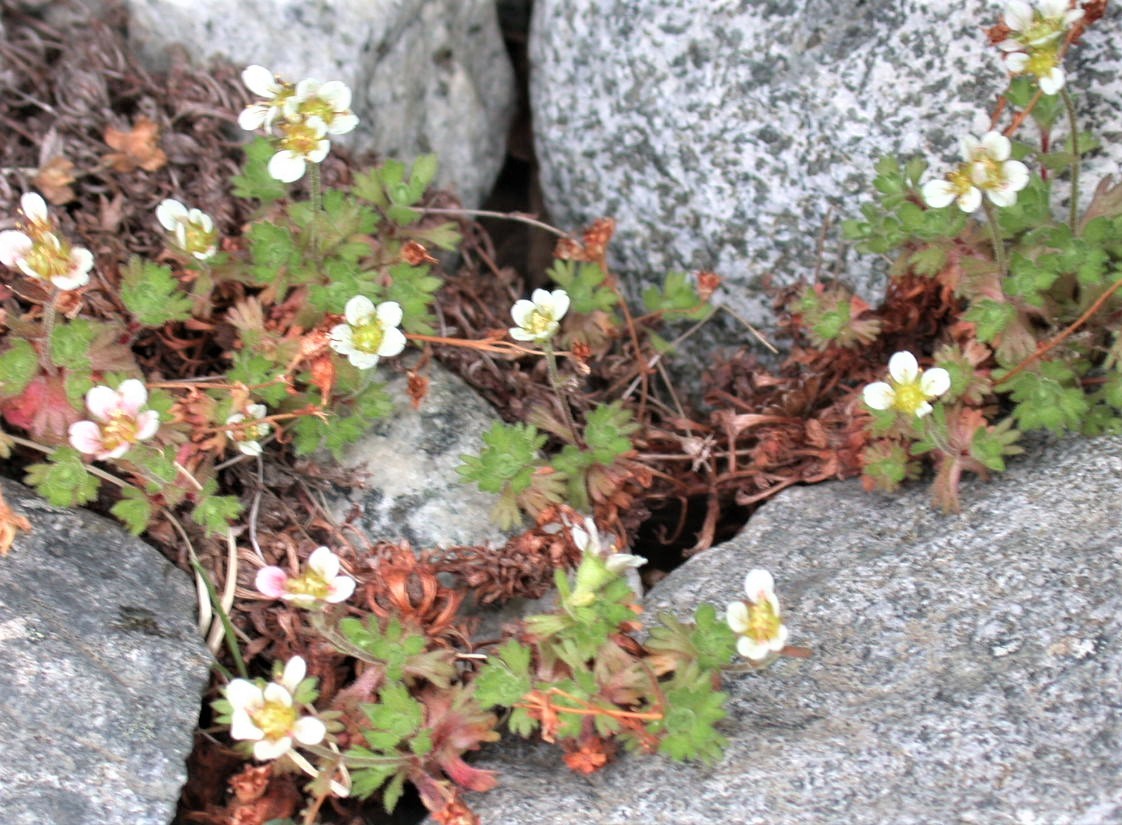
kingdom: Plantae
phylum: Tracheophyta
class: Magnoliopsida
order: Saxifragales
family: Saxifragaceae
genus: Saxifraga
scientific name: Saxifraga magellanica
